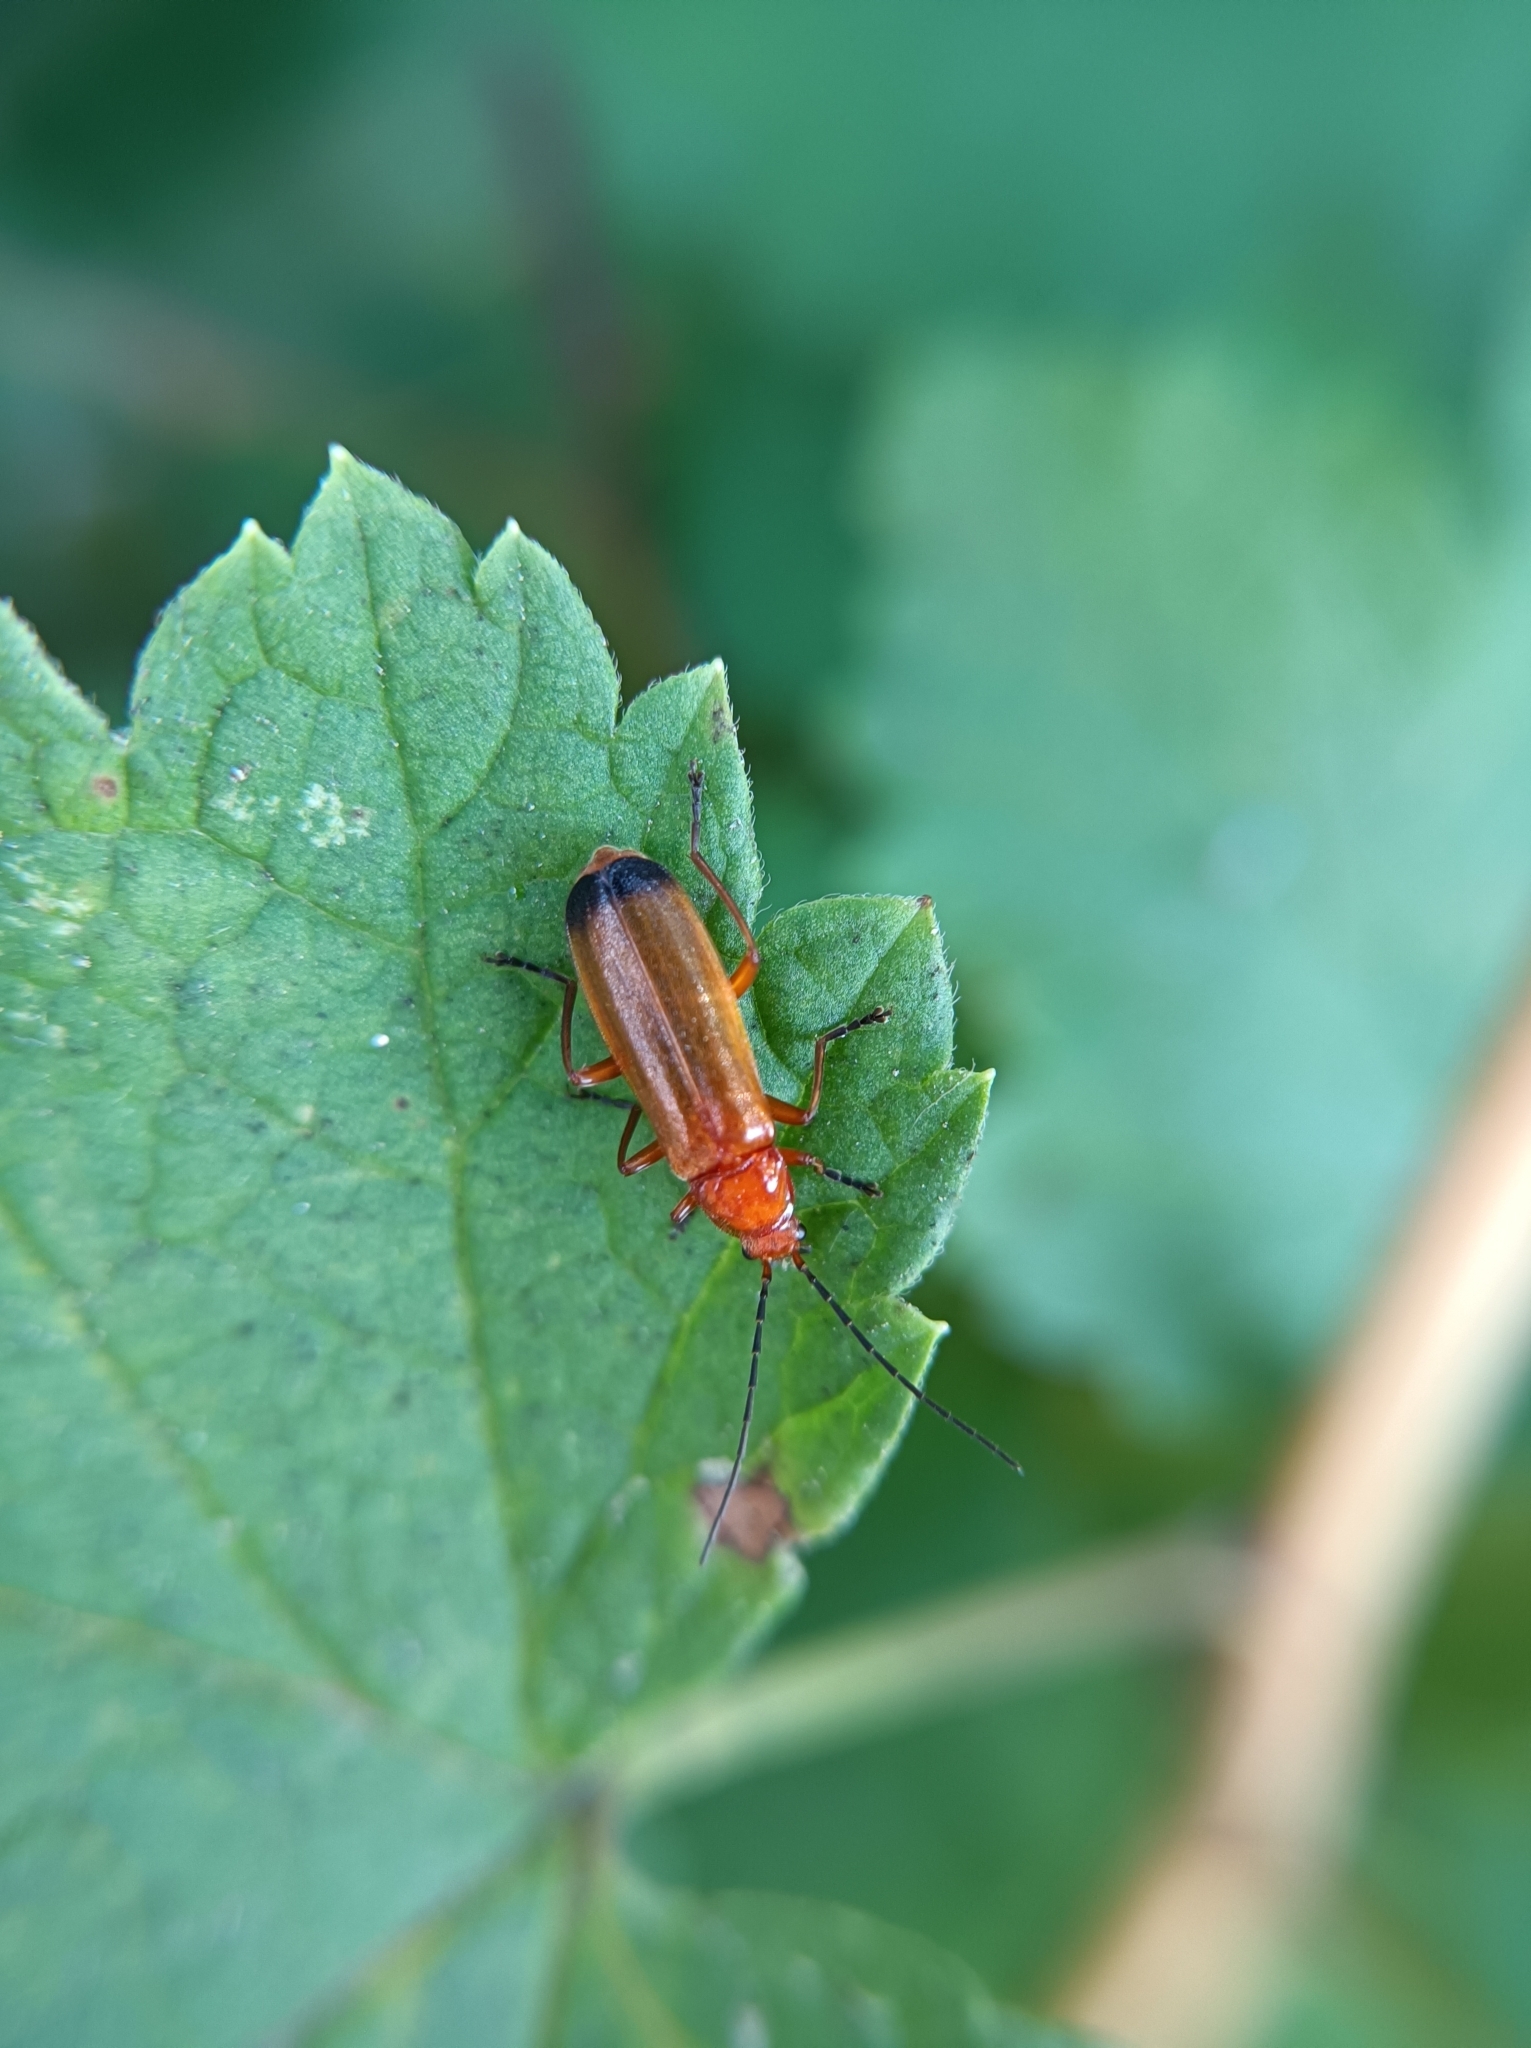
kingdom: Animalia
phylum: Arthropoda
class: Insecta
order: Coleoptera
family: Cantharidae
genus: Rhagonycha
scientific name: Rhagonycha fulva
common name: Common red soldier beetle
